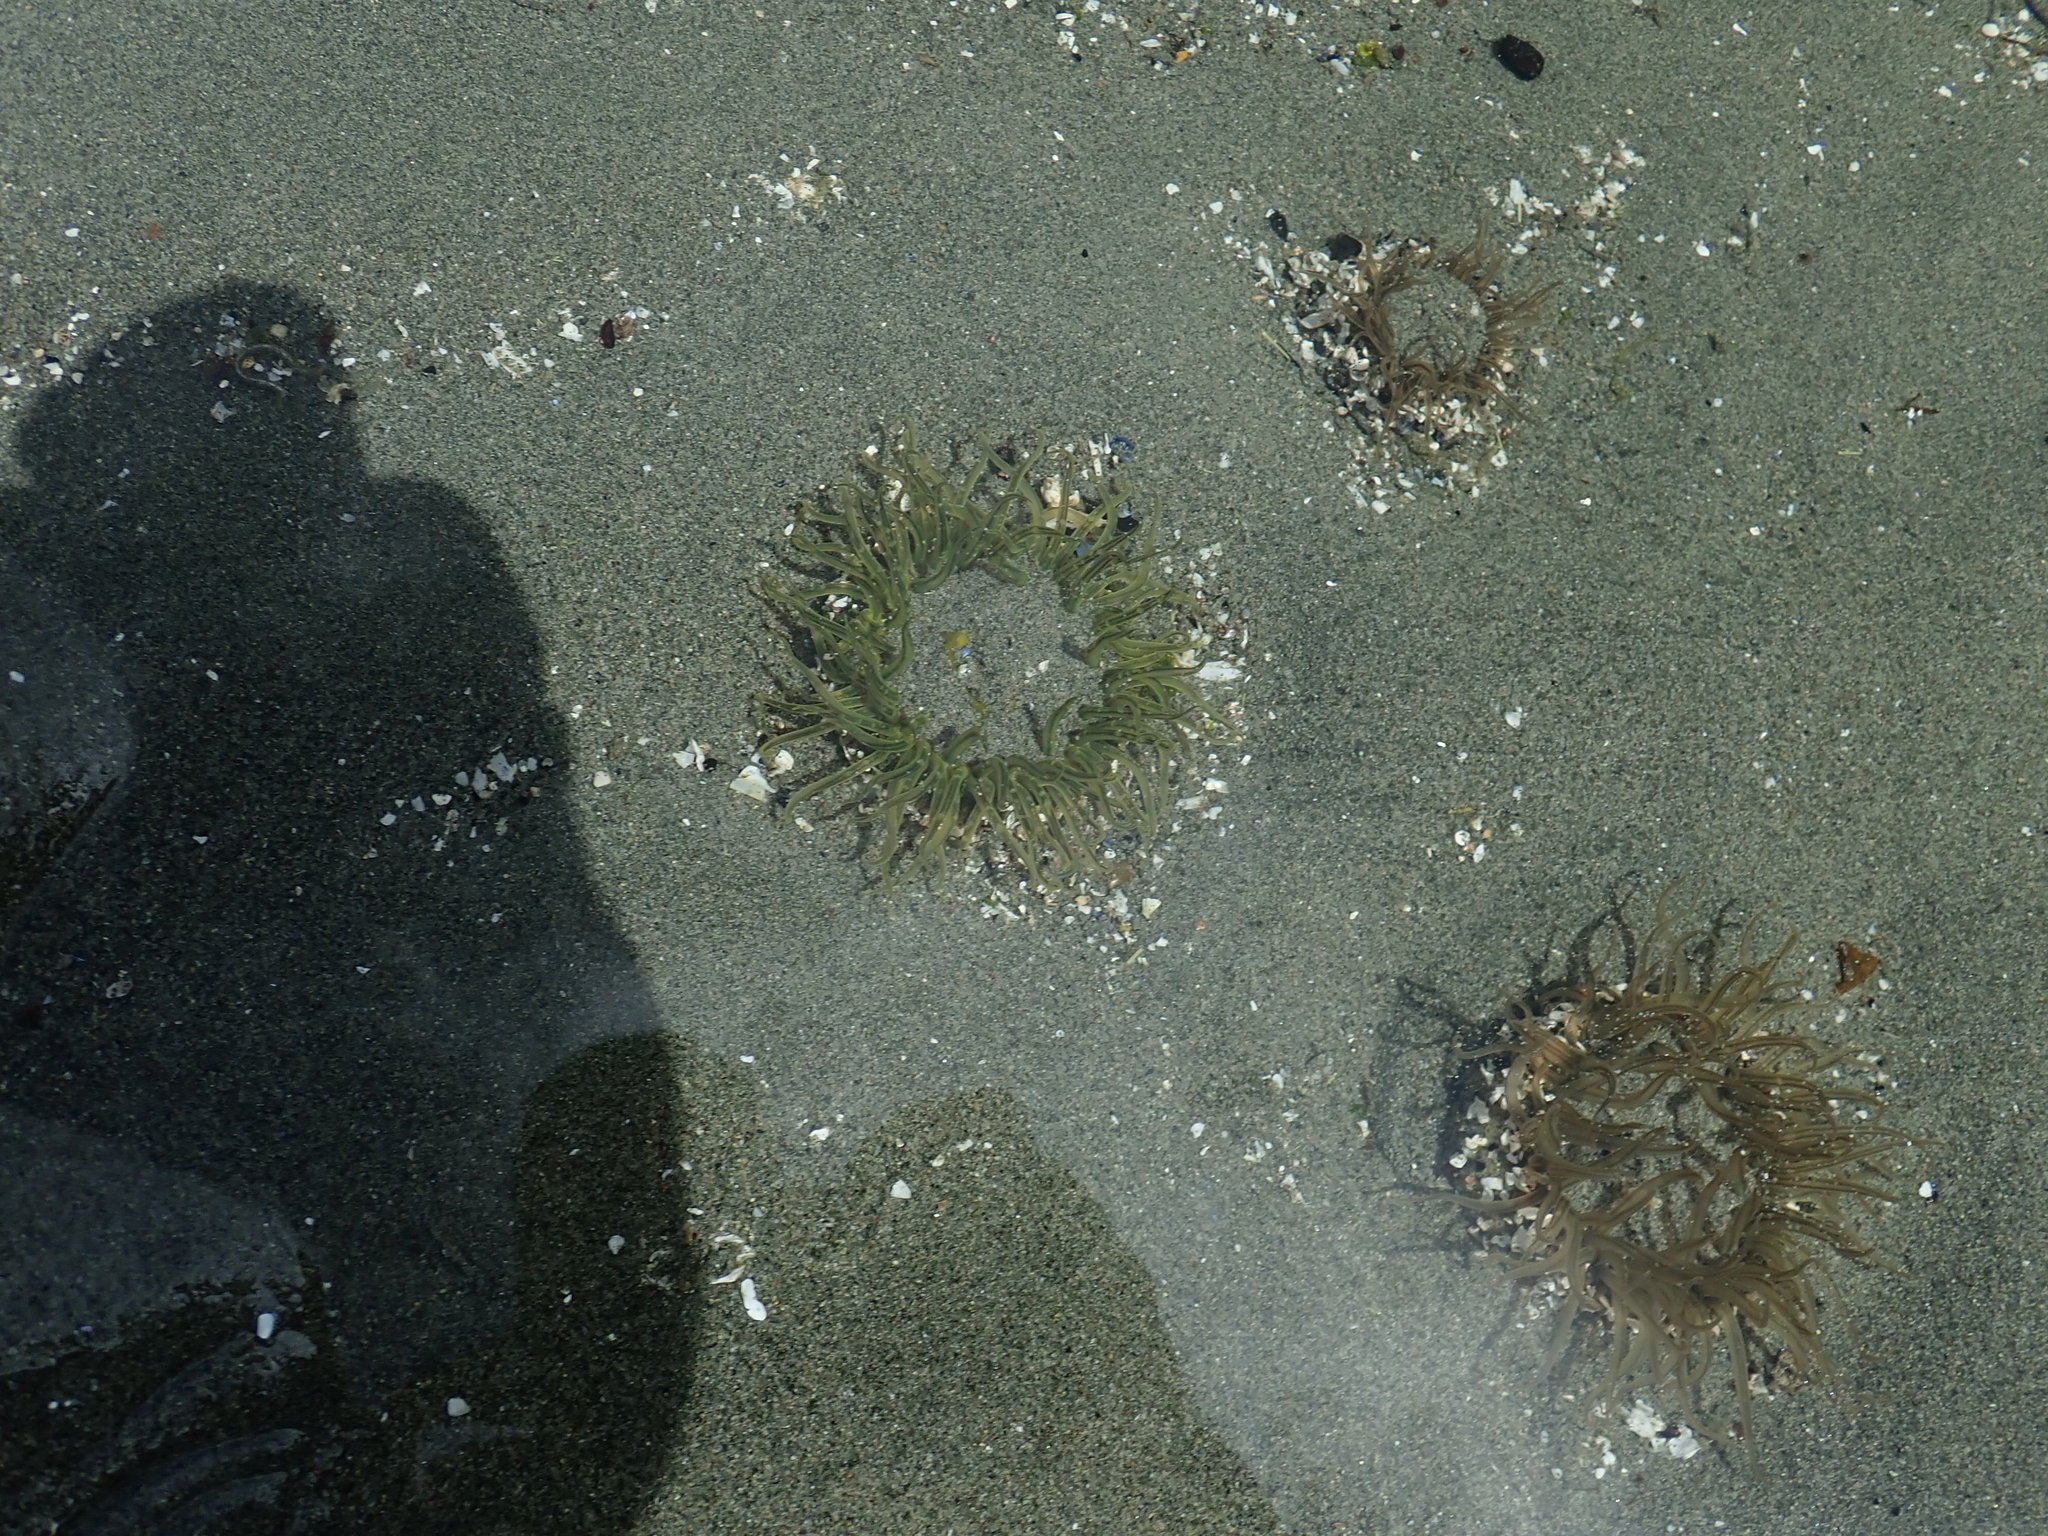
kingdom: Animalia
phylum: Cnidaria
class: Anthozoa
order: Actiniaria
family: Actiniidae
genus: Anthopleura
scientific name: Anthopleura artemisia
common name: Buried sea anemone
